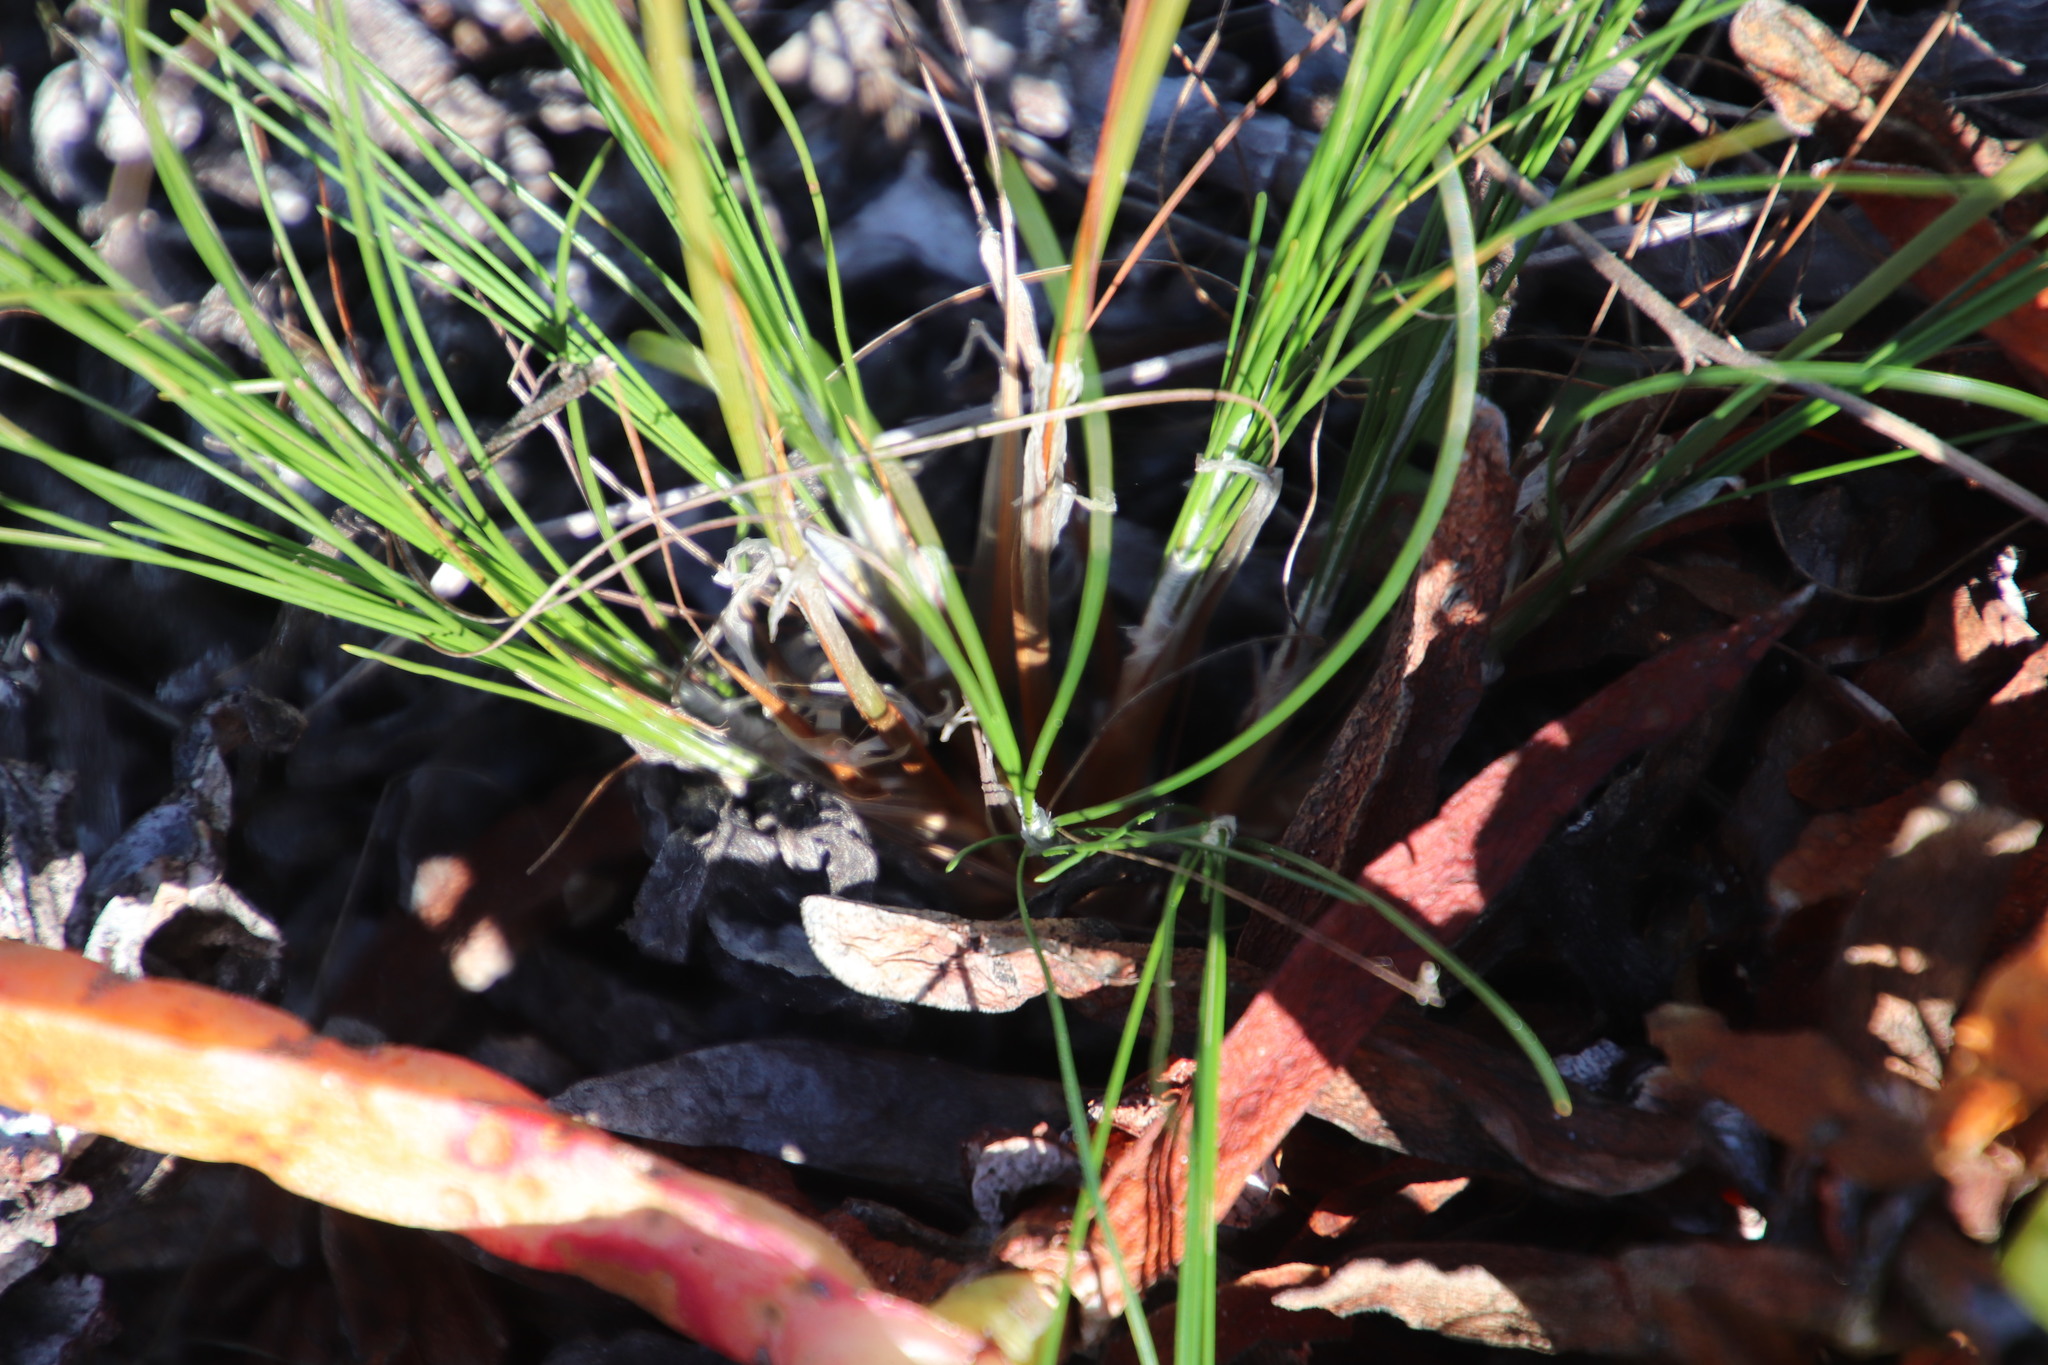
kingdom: Plantae
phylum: Tracheophyta
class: Liliopsida
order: Poales
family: Cyperaceae
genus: Ficinia
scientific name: Ficinia bulbosa
